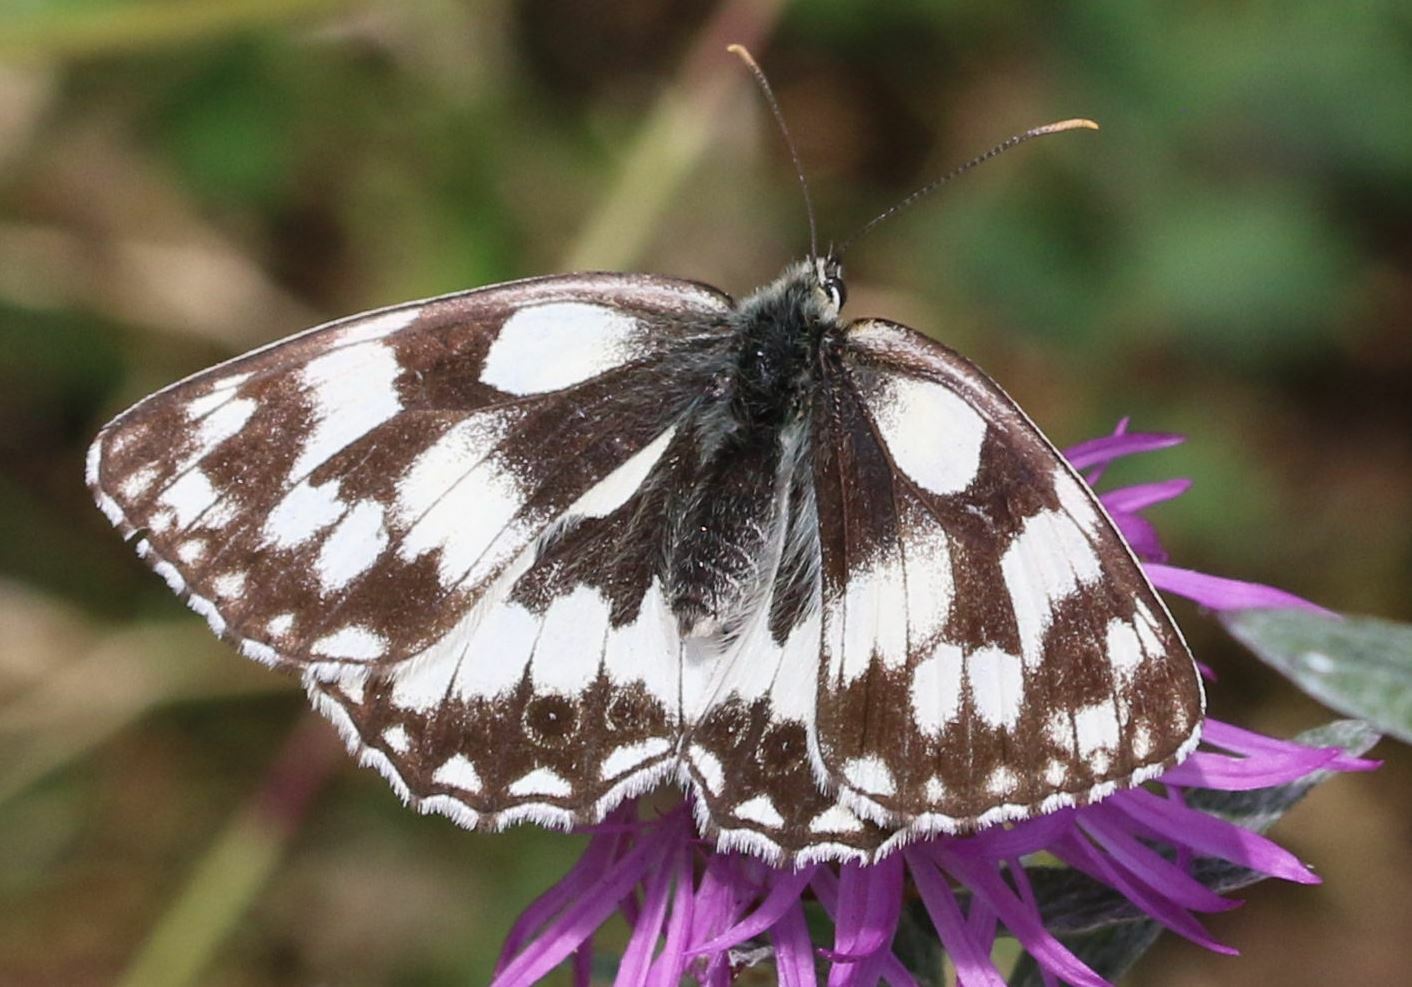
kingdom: Animalia
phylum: Arthropoda
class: Insecta
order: Lepidoptera
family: Nymphalidae
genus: Melanargia
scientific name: Melanargia galathea
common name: Marbled white
